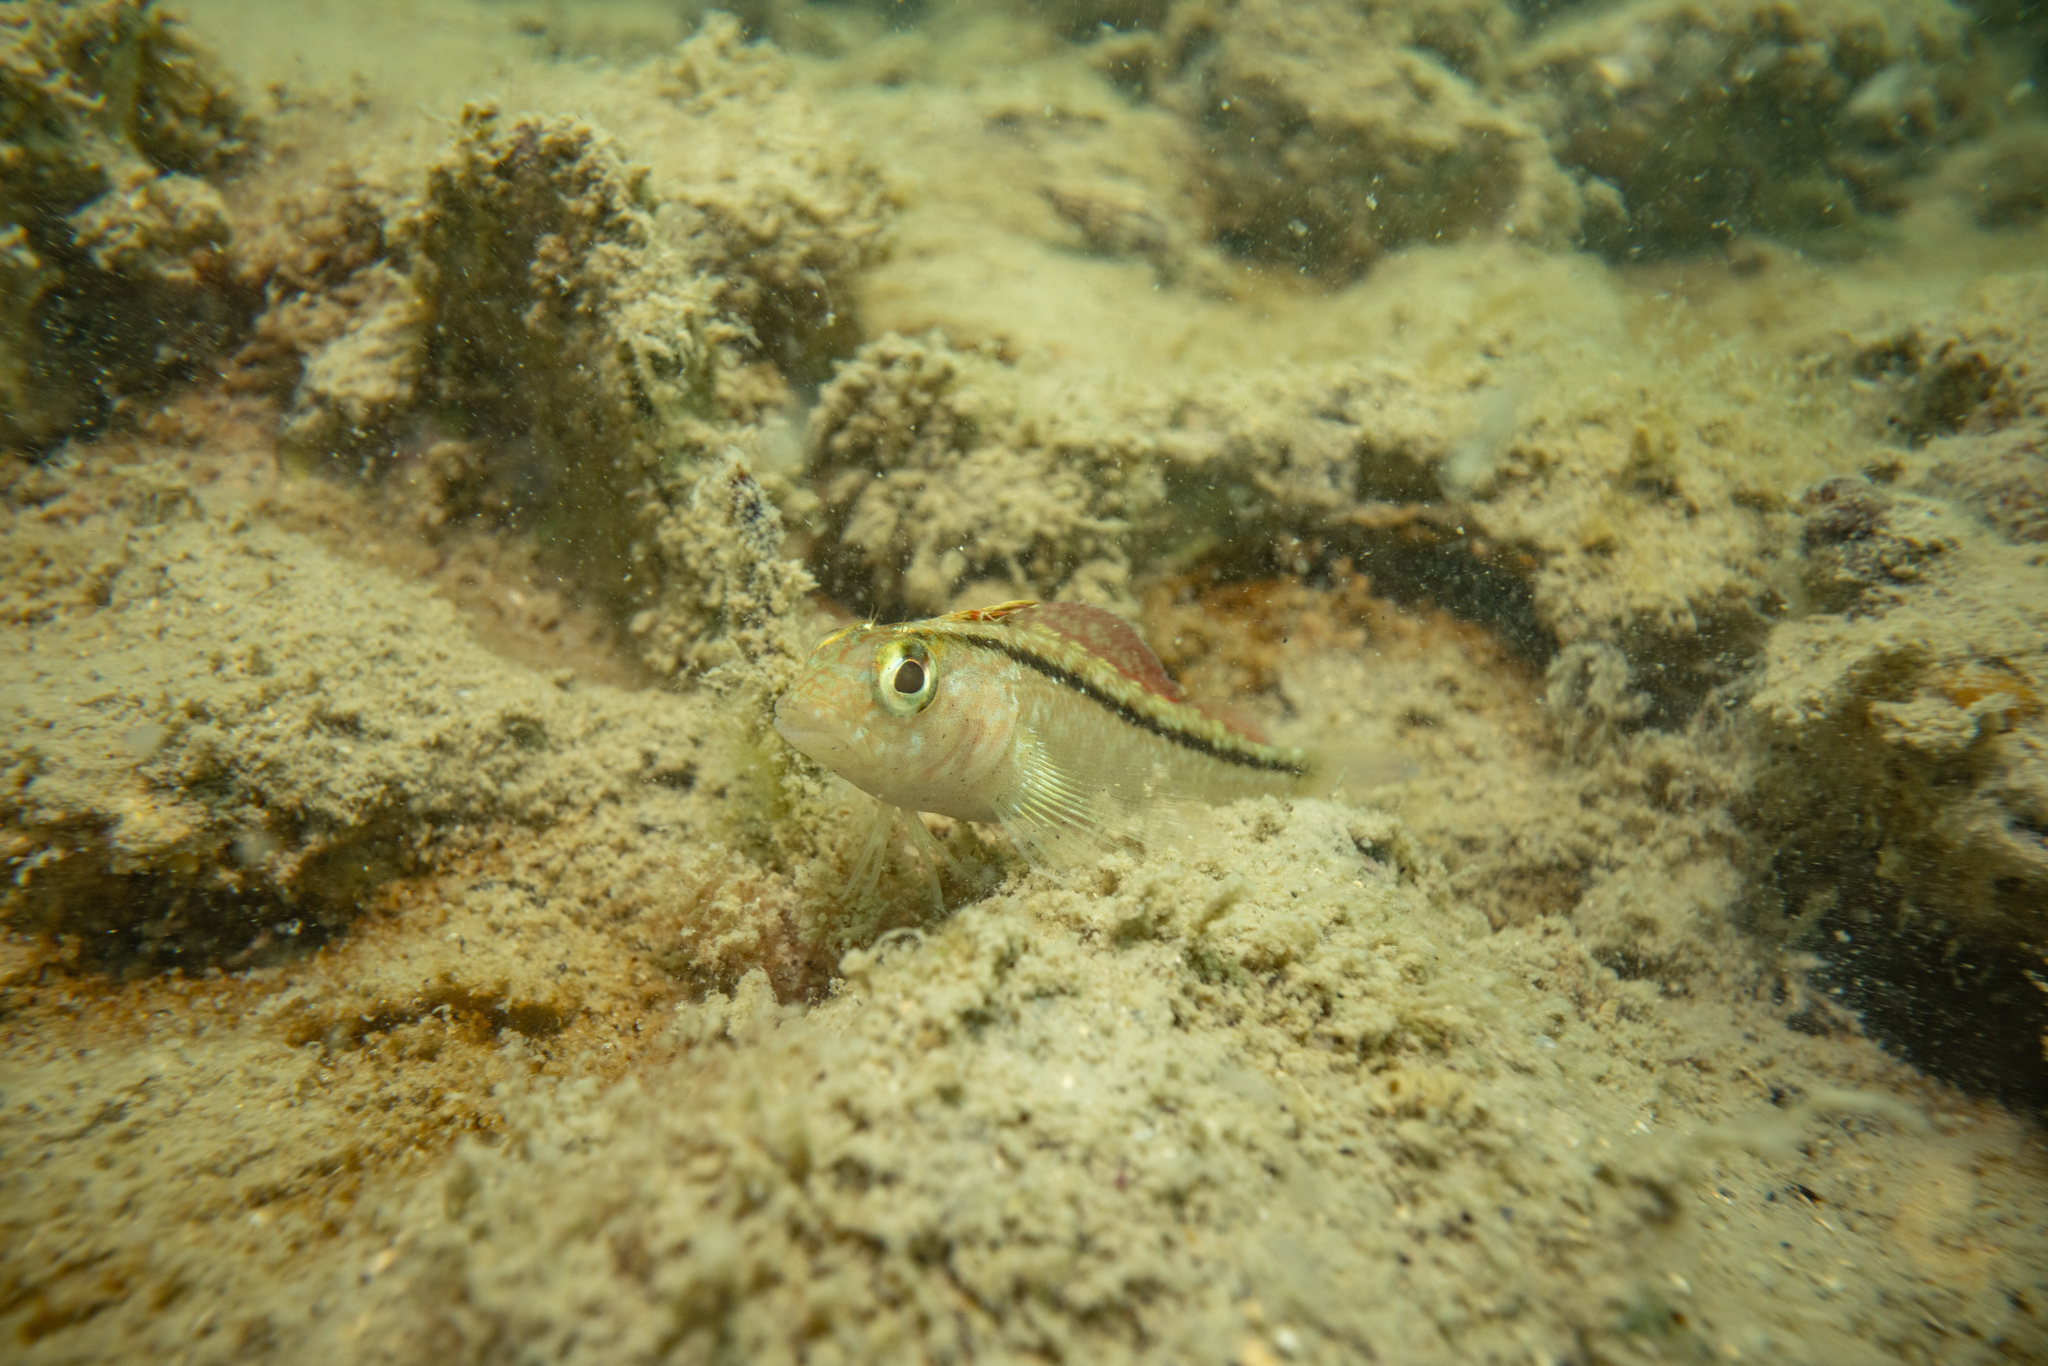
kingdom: Animalia
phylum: Chordata
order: Perciformes
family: Tripterygiidae
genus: Forsterygion
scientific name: Forsterygion lapillum
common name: Common triplefin
